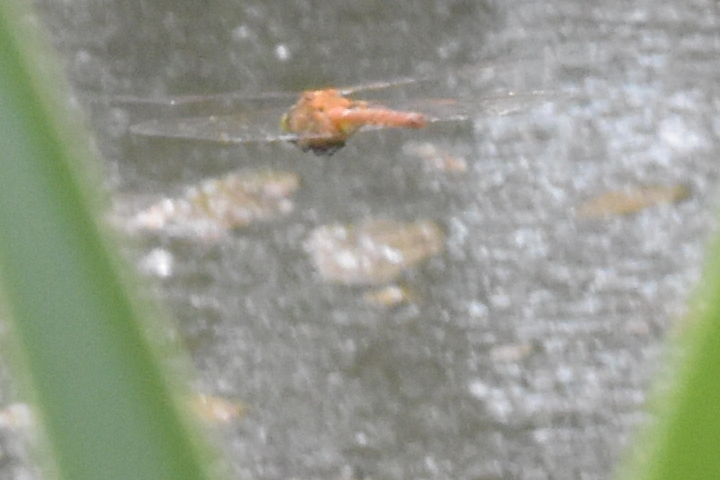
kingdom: Animalia
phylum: Arthropoda
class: Insecta
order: Odonata
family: Aeshnidae
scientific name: Aeshnidae
